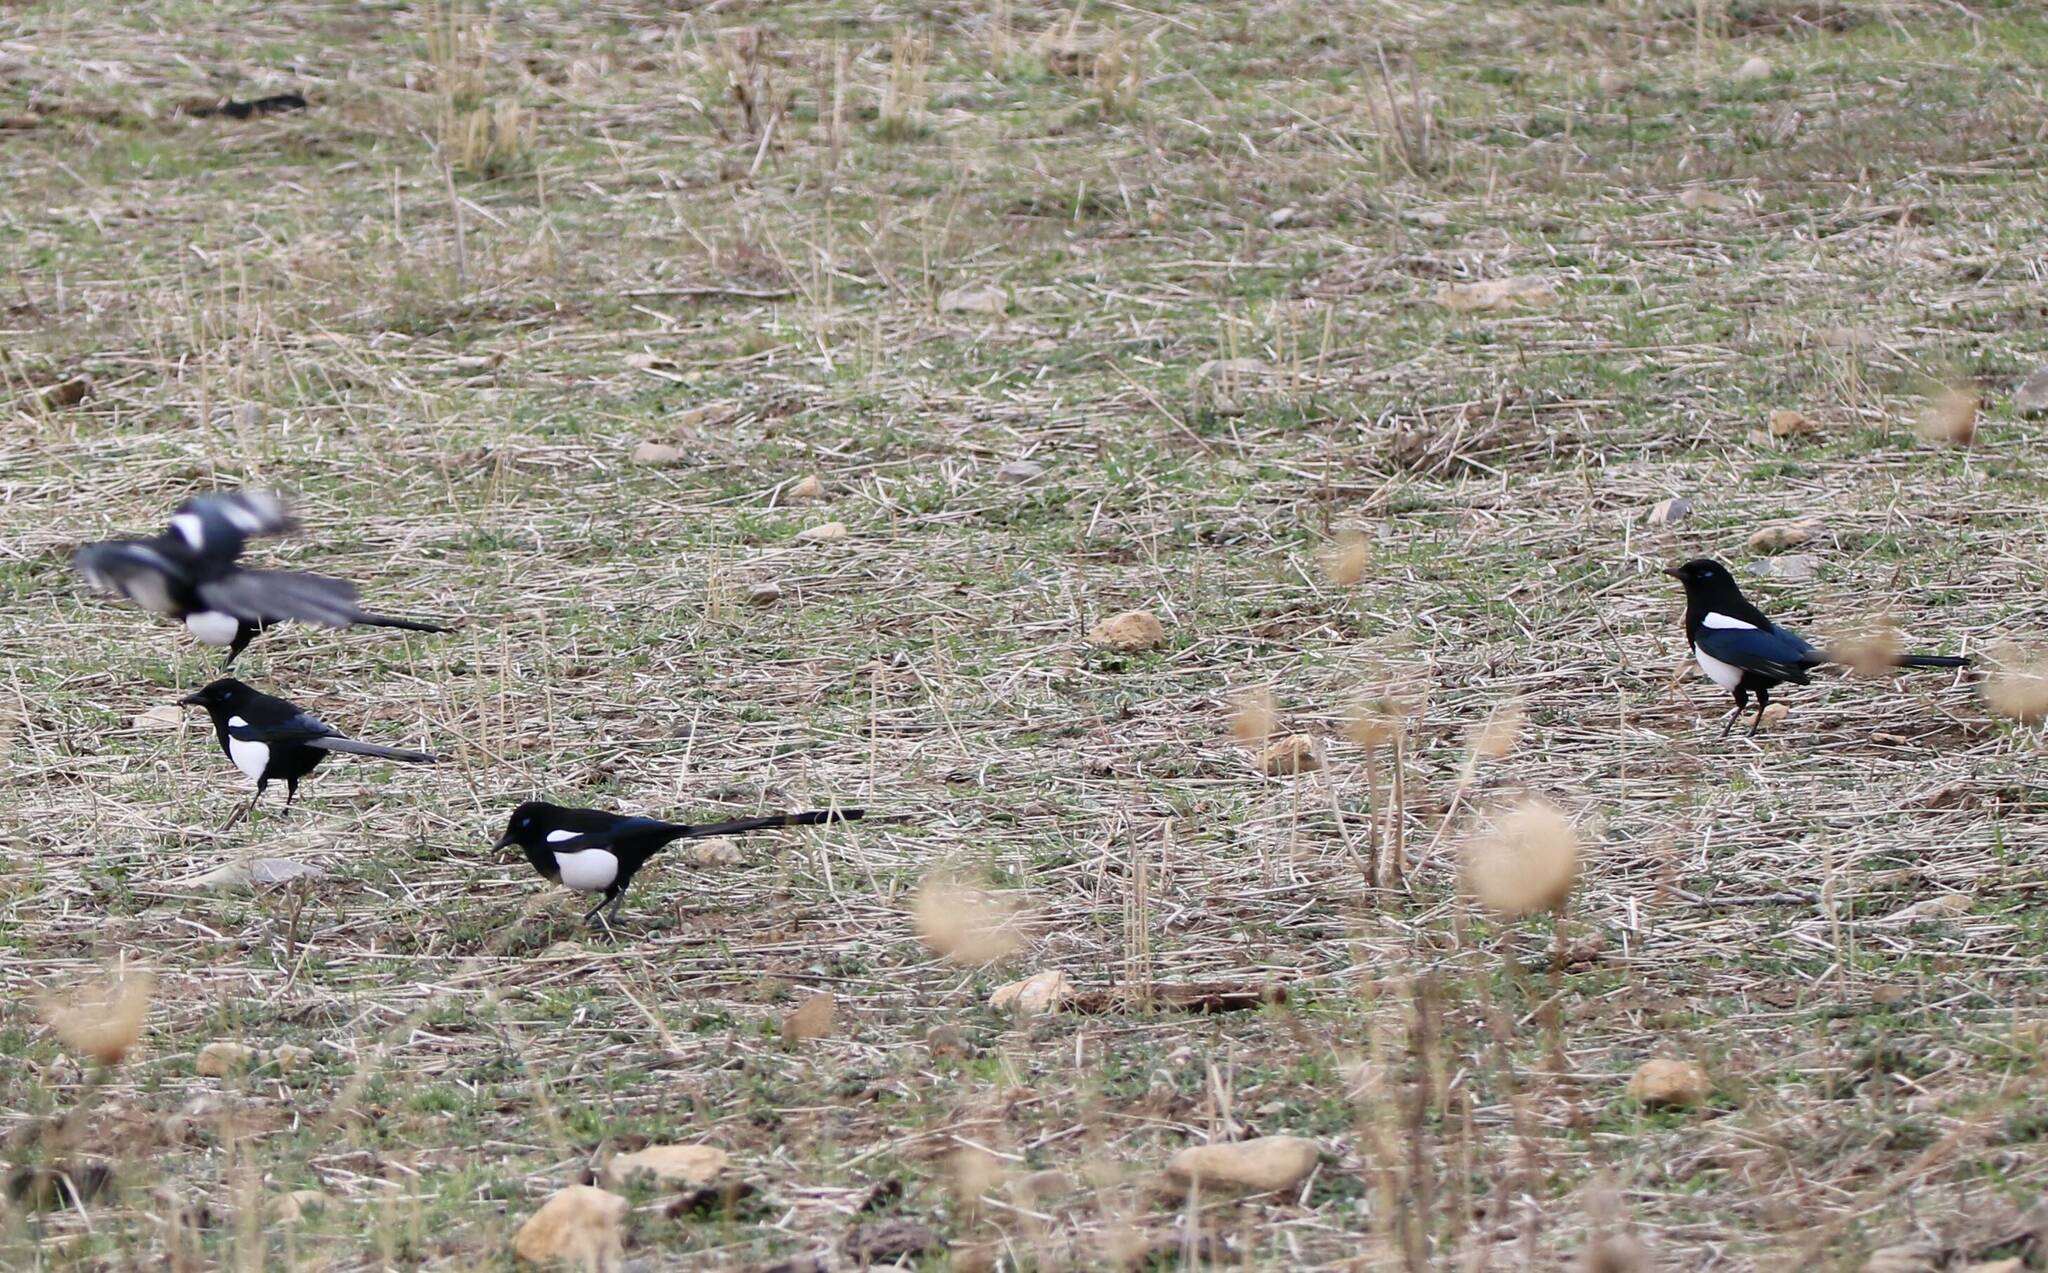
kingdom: Animalia
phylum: Chordata
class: Aves
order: Passeriformes
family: Corvidae
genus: Pica
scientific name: Pica mauritanica
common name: Maghreb magpie
